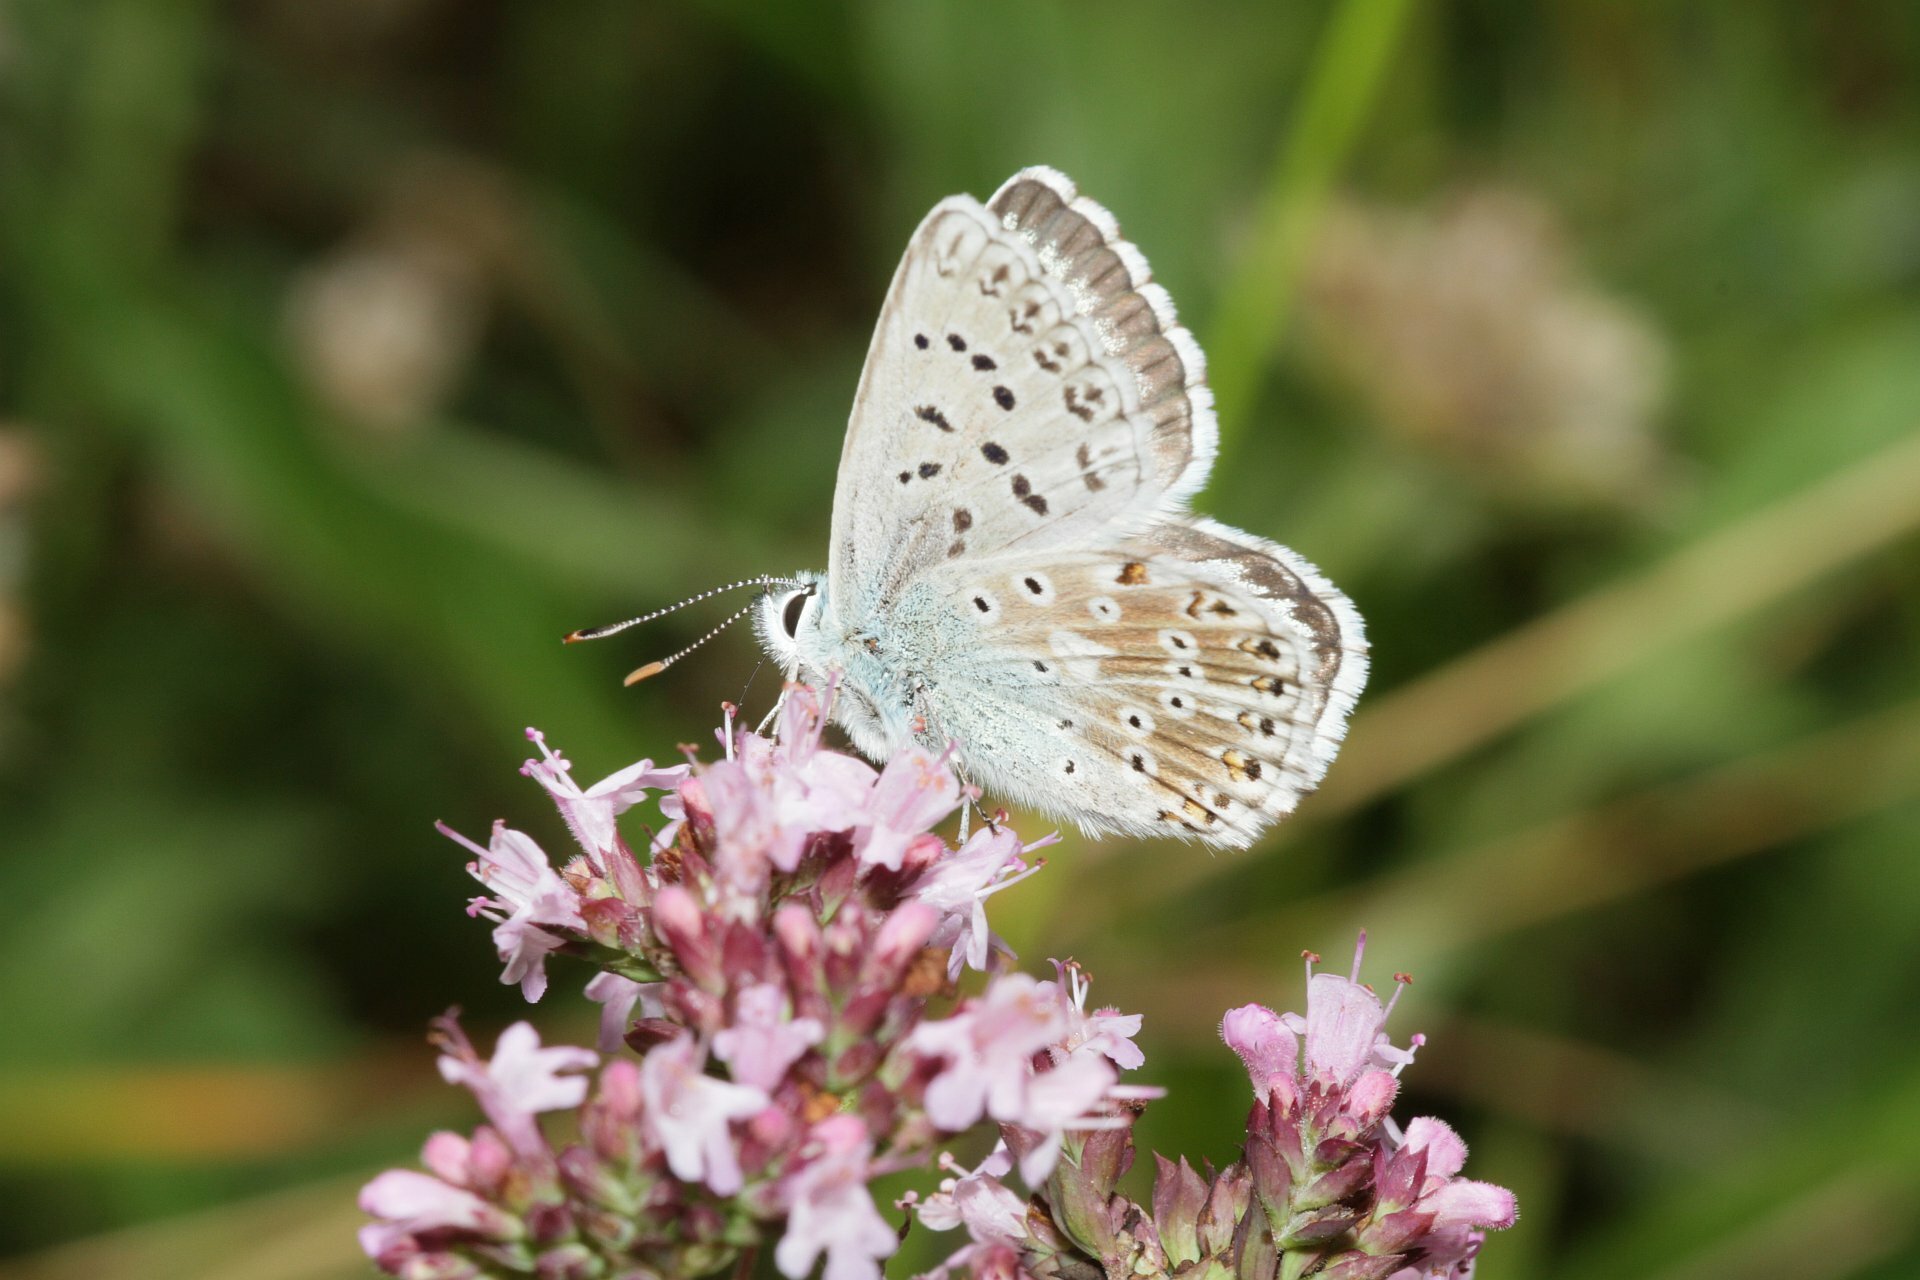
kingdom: Animalia
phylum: Arthropoda
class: Insecta
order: Lepidoptera
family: Lycaenidae
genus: Lysandra
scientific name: Lysandra coridon
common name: Chalkhill blue
